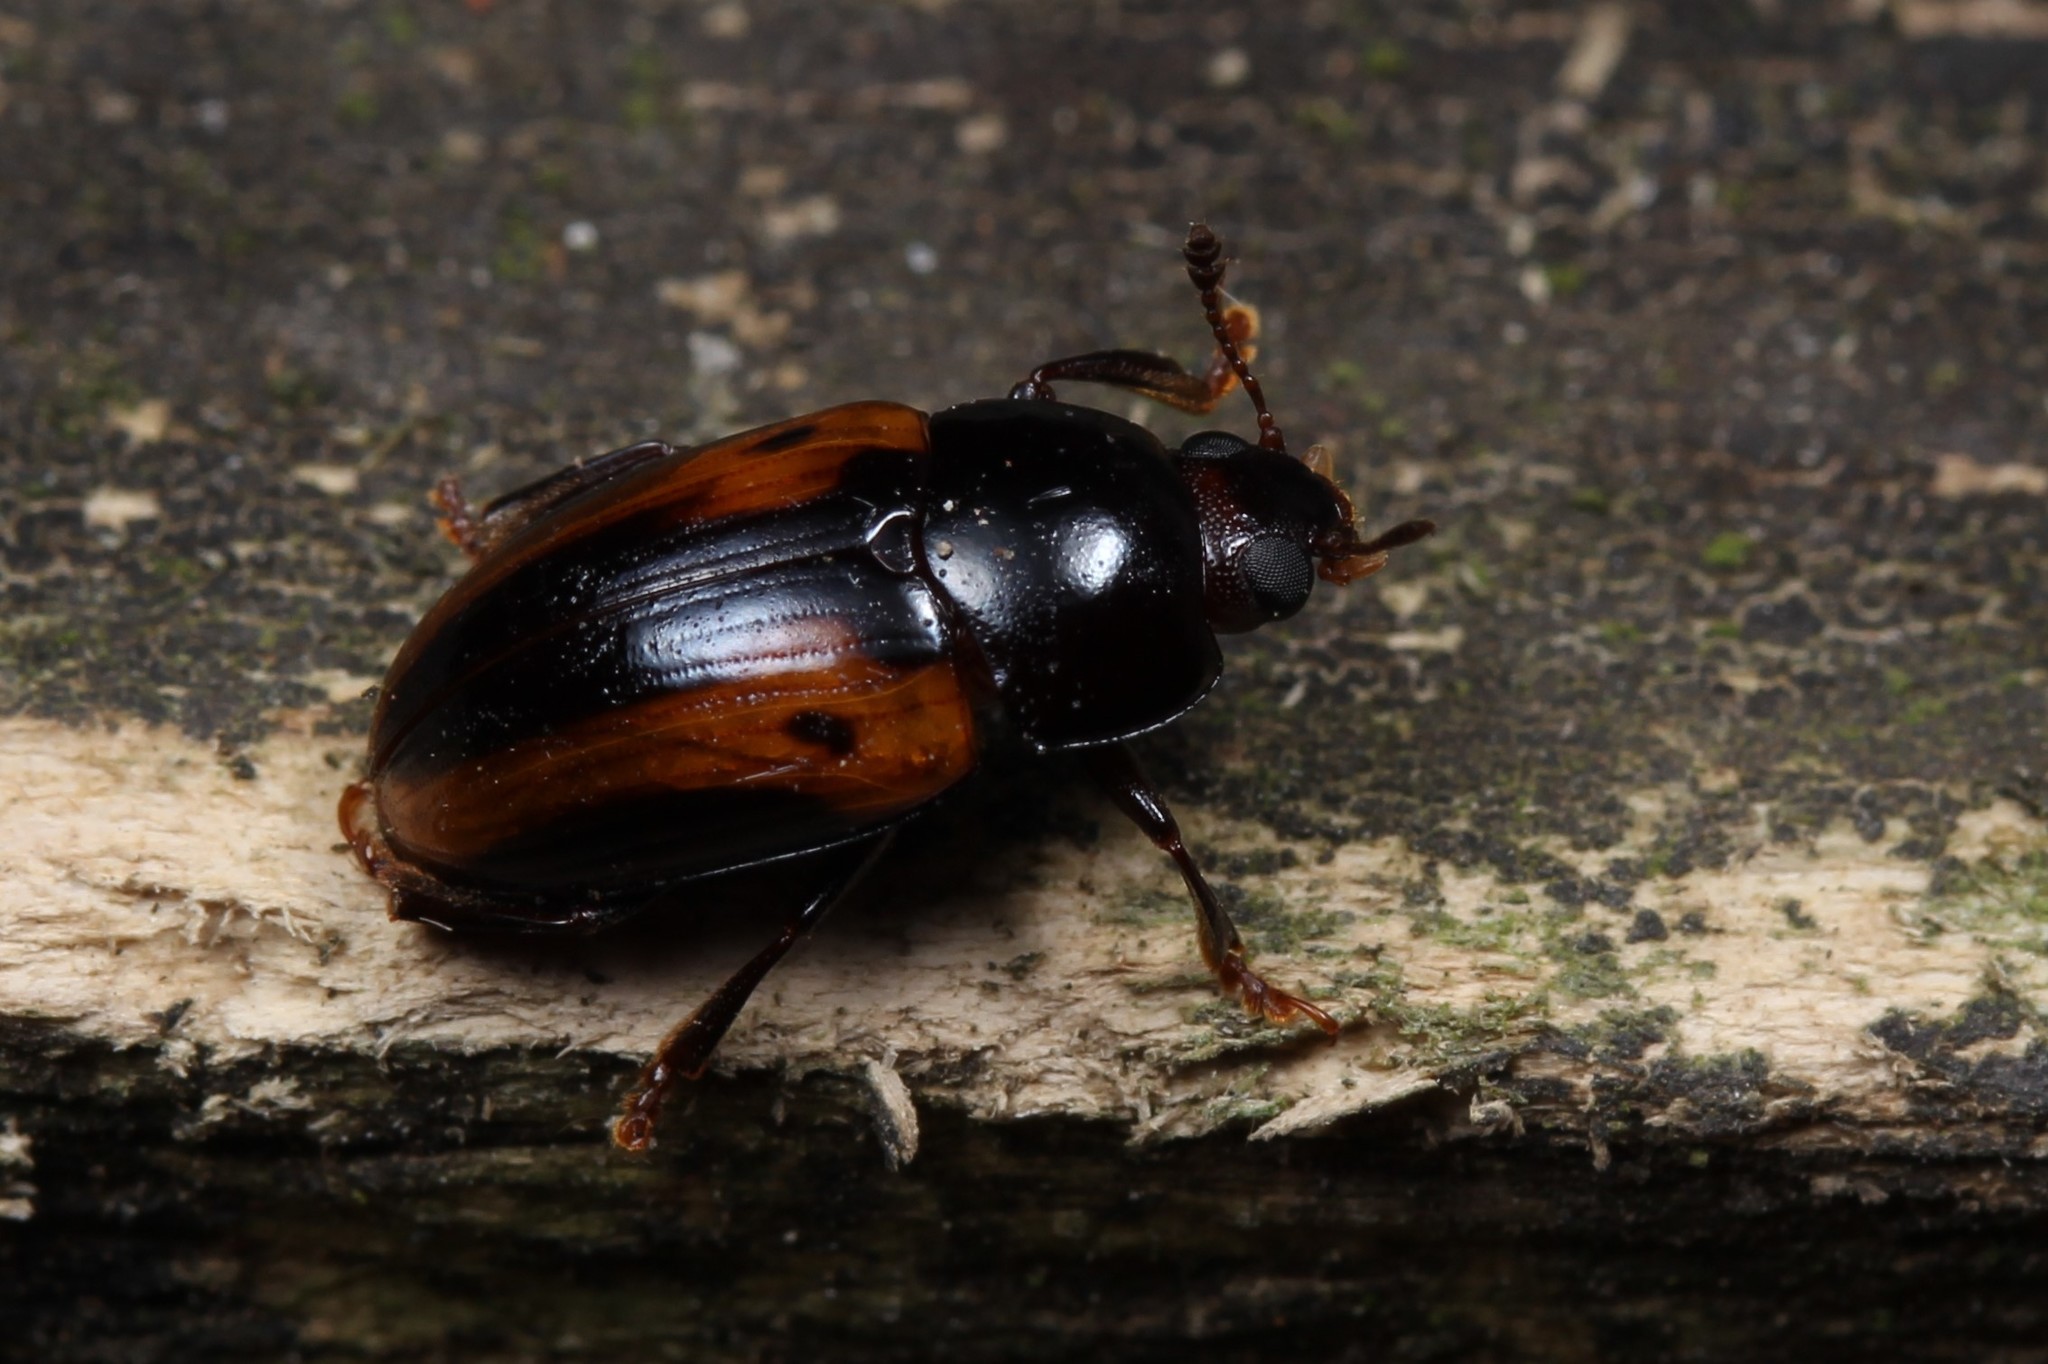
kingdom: Animalia
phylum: Arthropoda
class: Insecta
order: Coleoptera
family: Erotylidae
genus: Amblyopus
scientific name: Amblyopus
